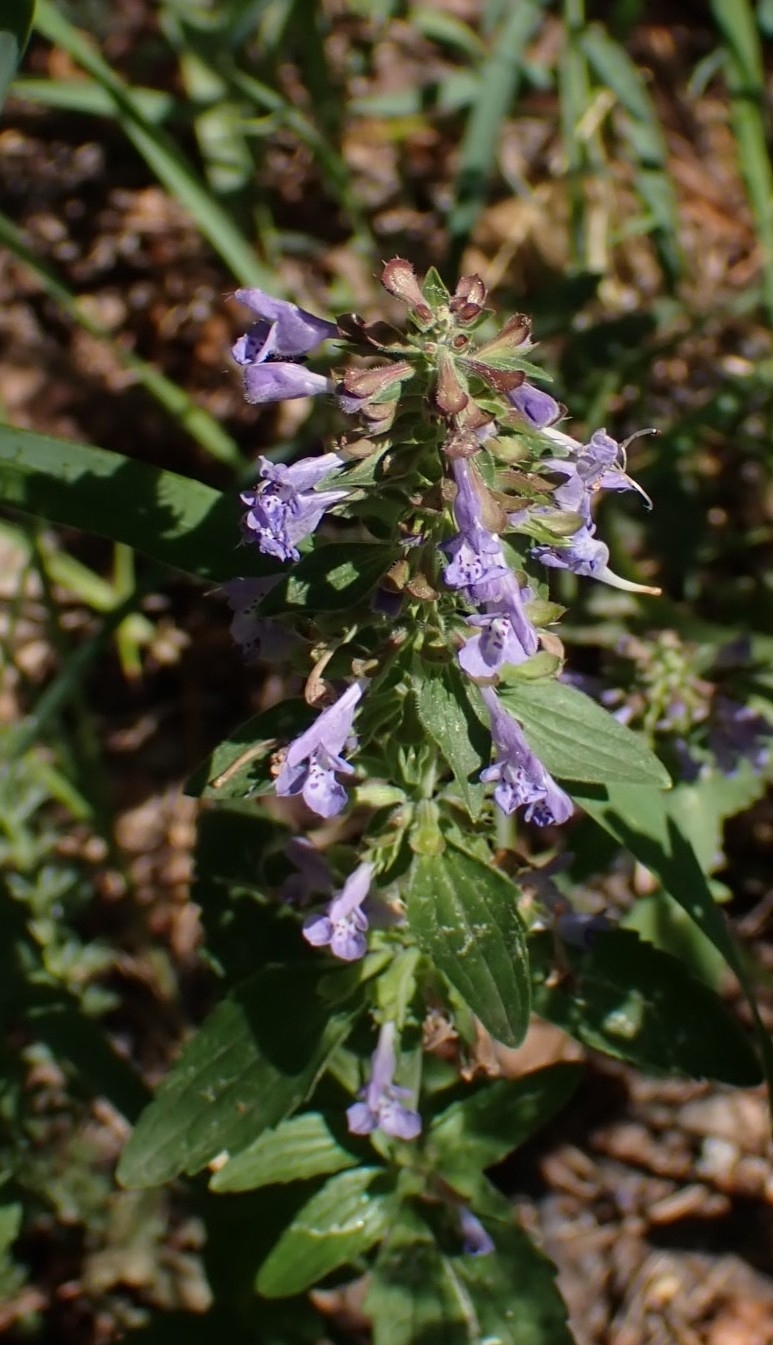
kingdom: Plantae
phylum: Tracheophyta
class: Magnoliopsida
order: Lamiales
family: Lamiaceae
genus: Dracocephalum
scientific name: Dracocephalum nutans
